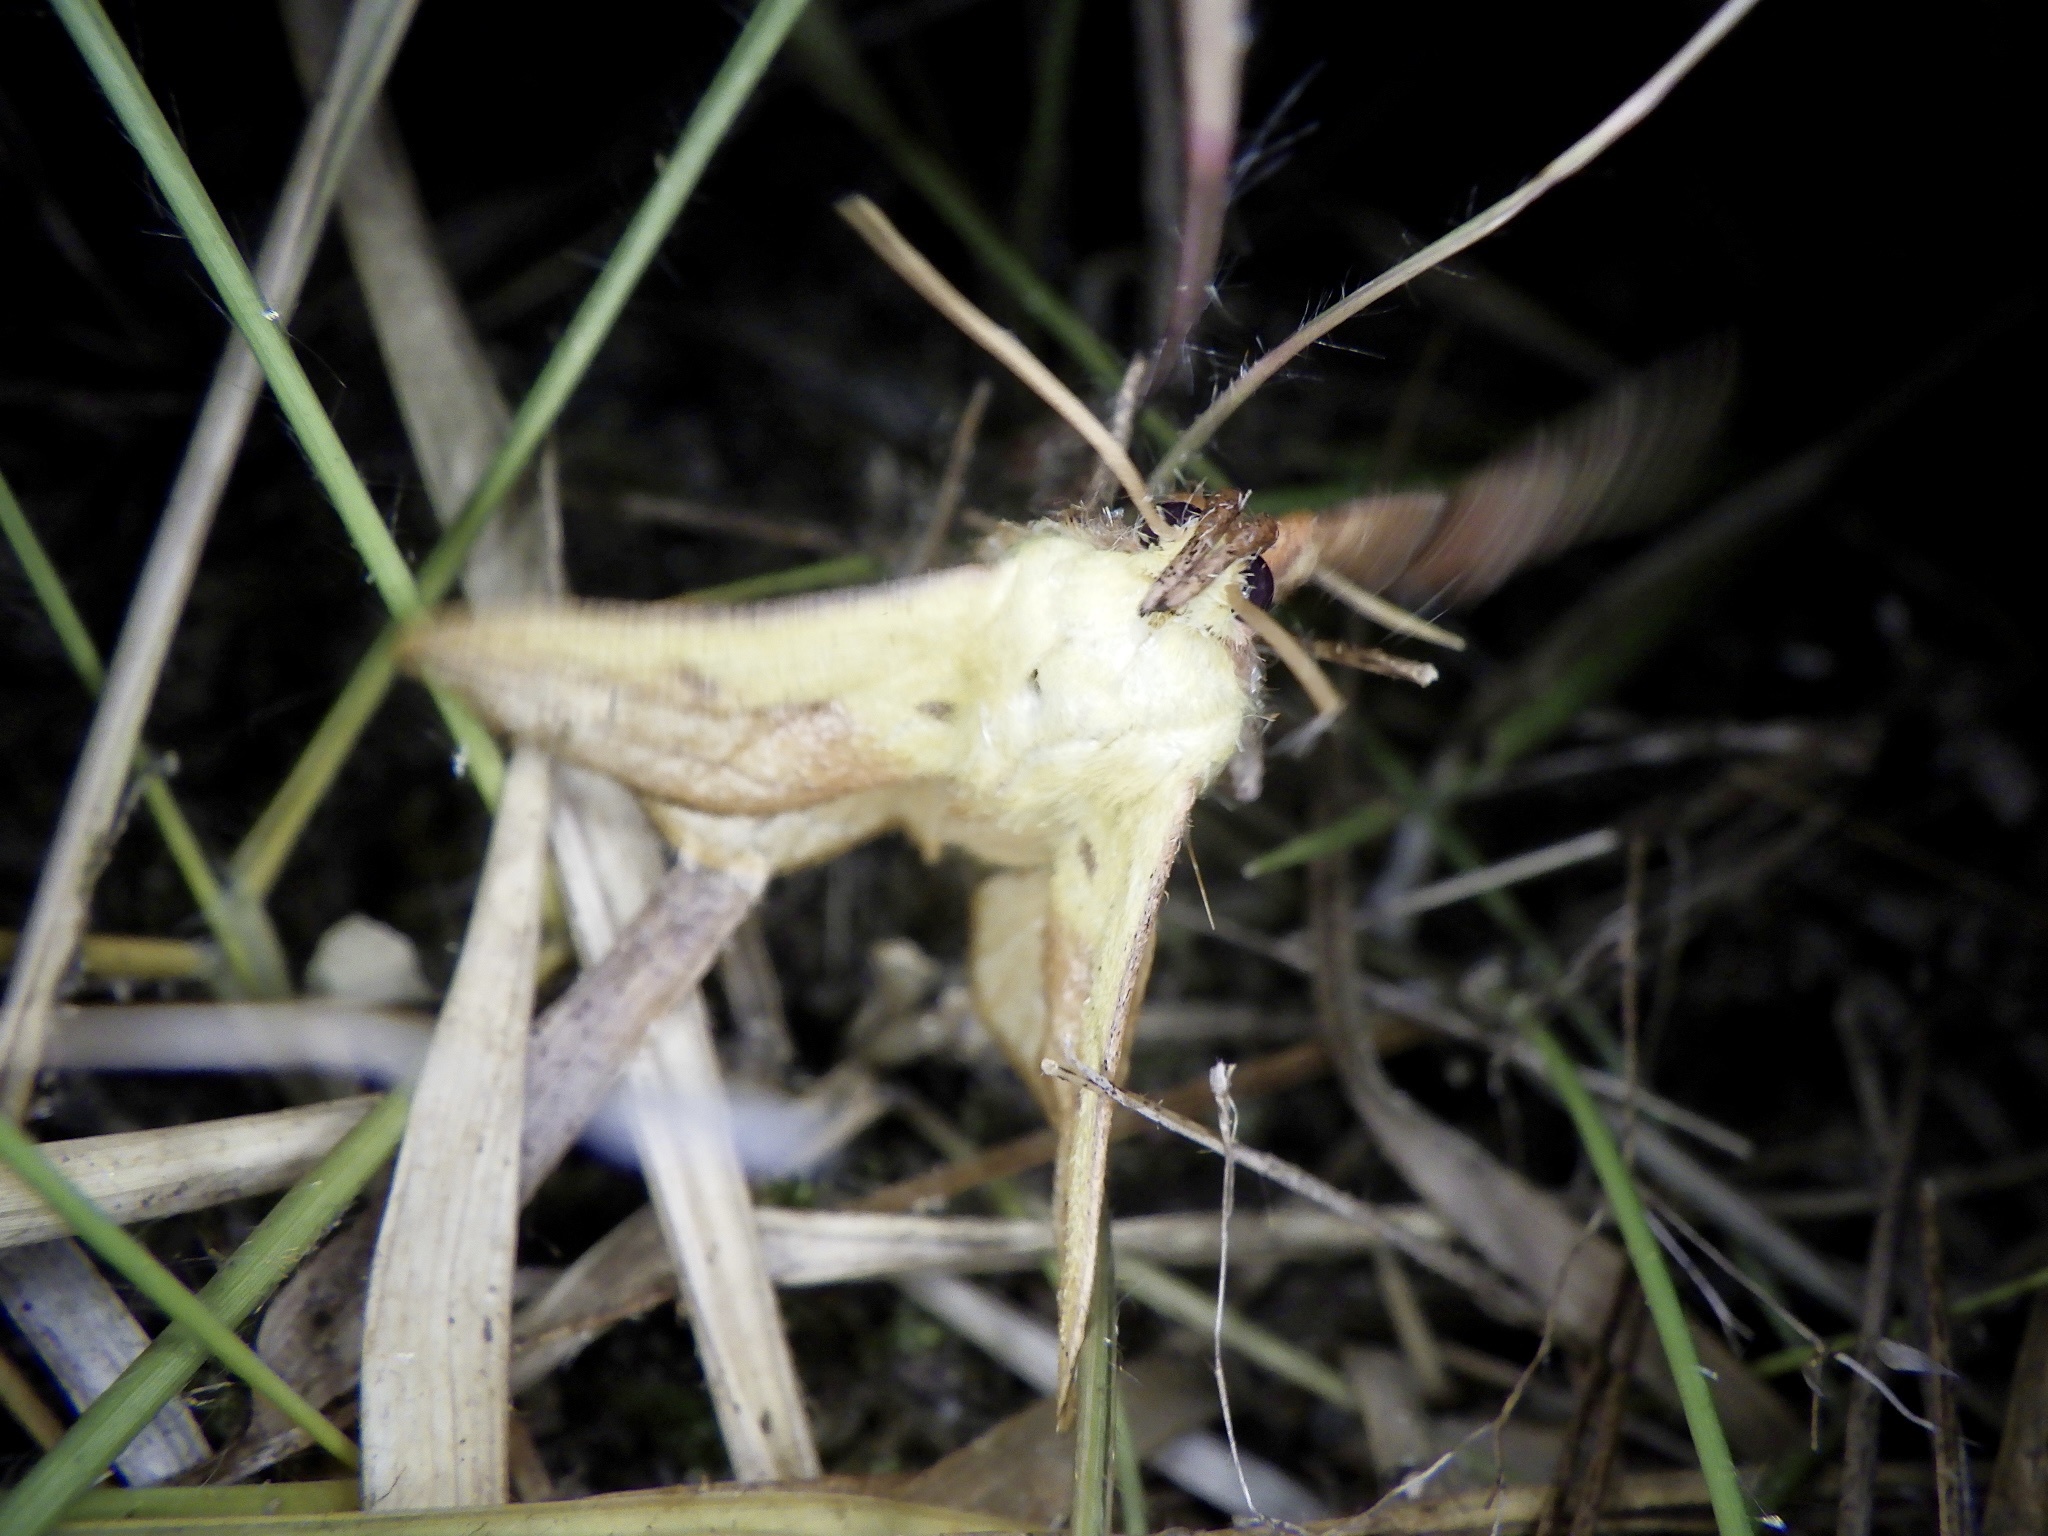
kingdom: Animalia
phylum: Arthropoda
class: Insecta
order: Lepidoptera
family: Limacodidae
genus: Monema
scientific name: Monema flavescens
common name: Oriental moth
